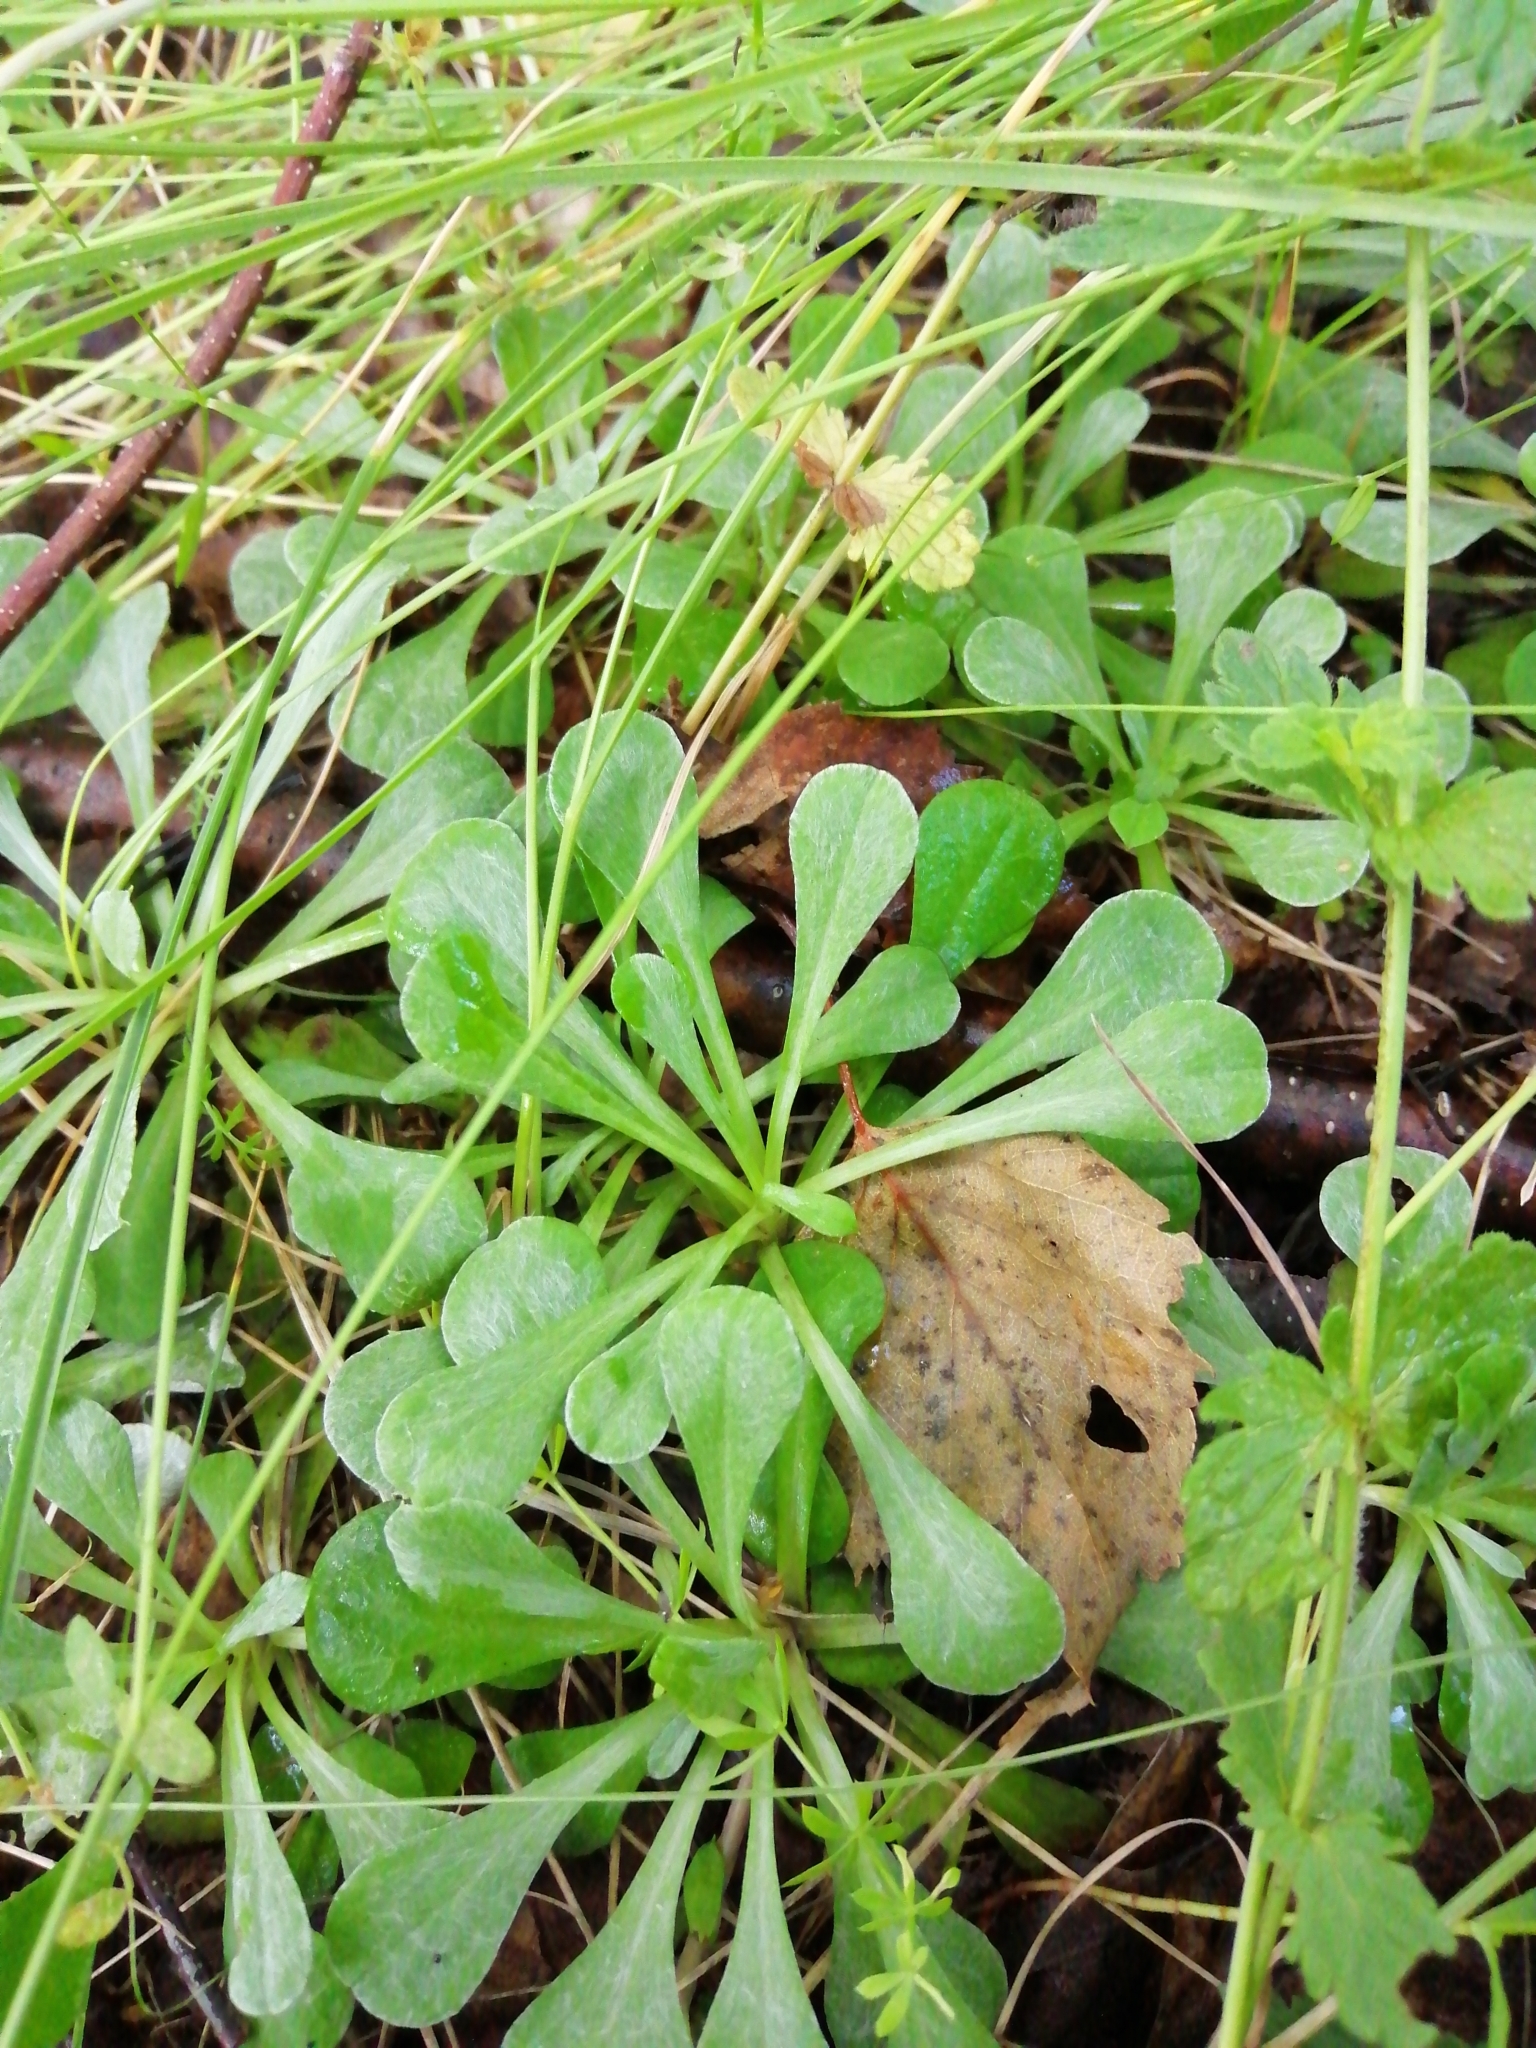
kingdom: Plantae
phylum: Tracheophyta
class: Magnoliopsida
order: Asterales
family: Asteraceae
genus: Antennaria
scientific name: Antennaria dioica
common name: Mountain everlasting
